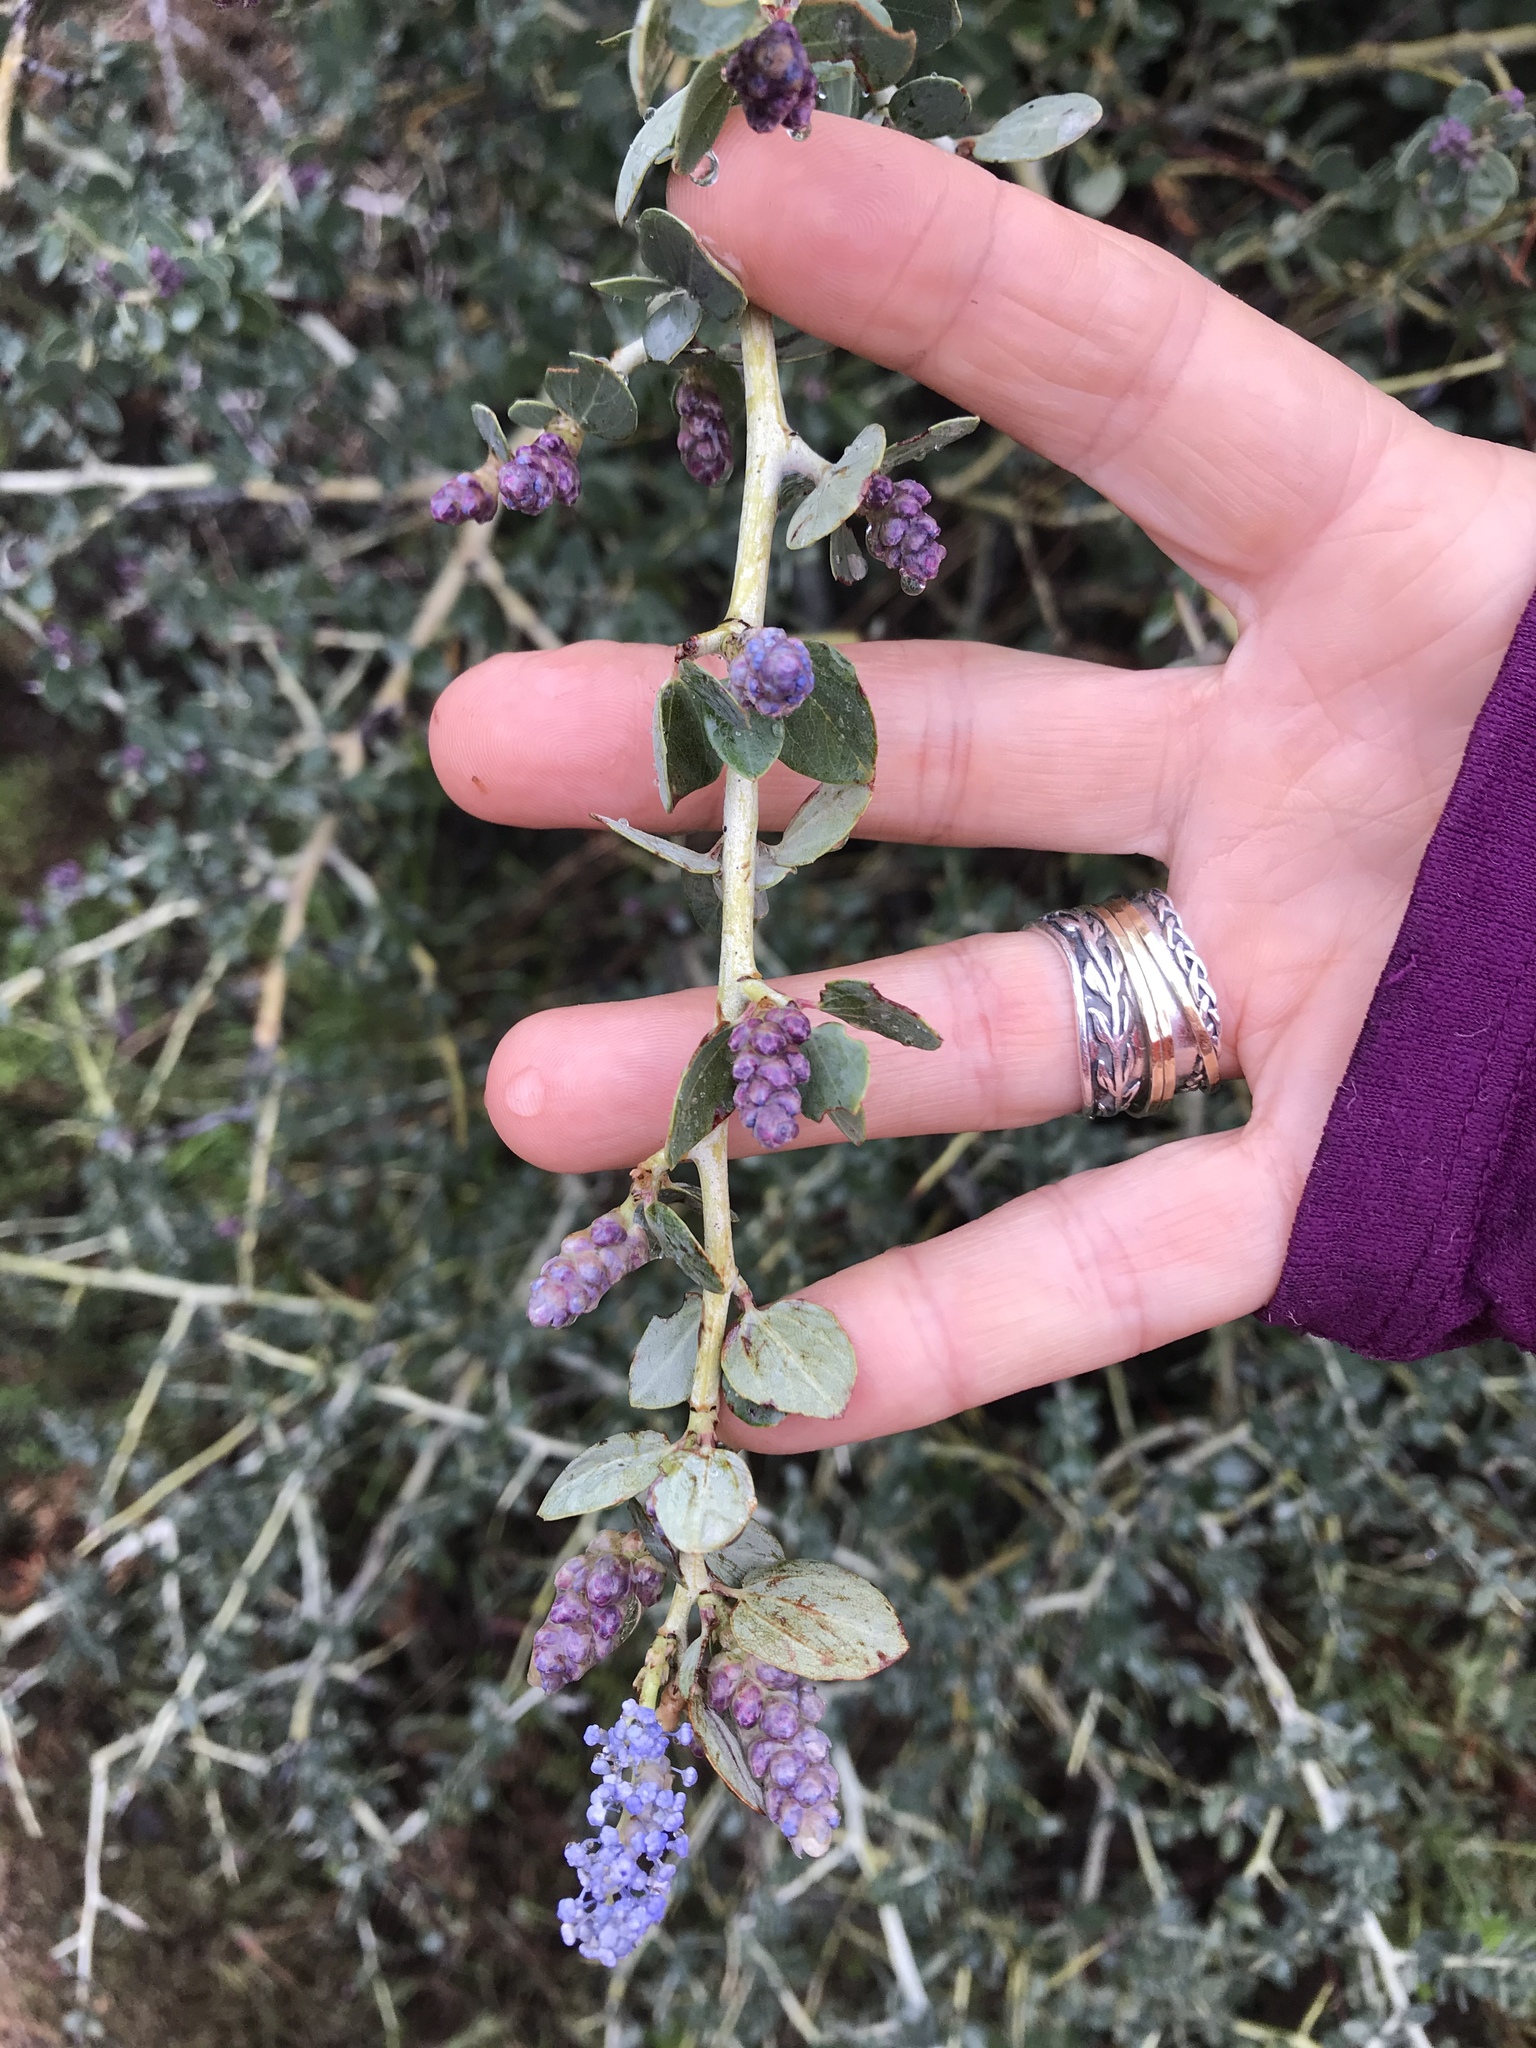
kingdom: Plantae
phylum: Tracheophyta
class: Magnoliopsida
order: Rosales
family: Rhamnaceae
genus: Ceanothus
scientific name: Ceanothus leucodermis
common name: Chaparral whitethorn
